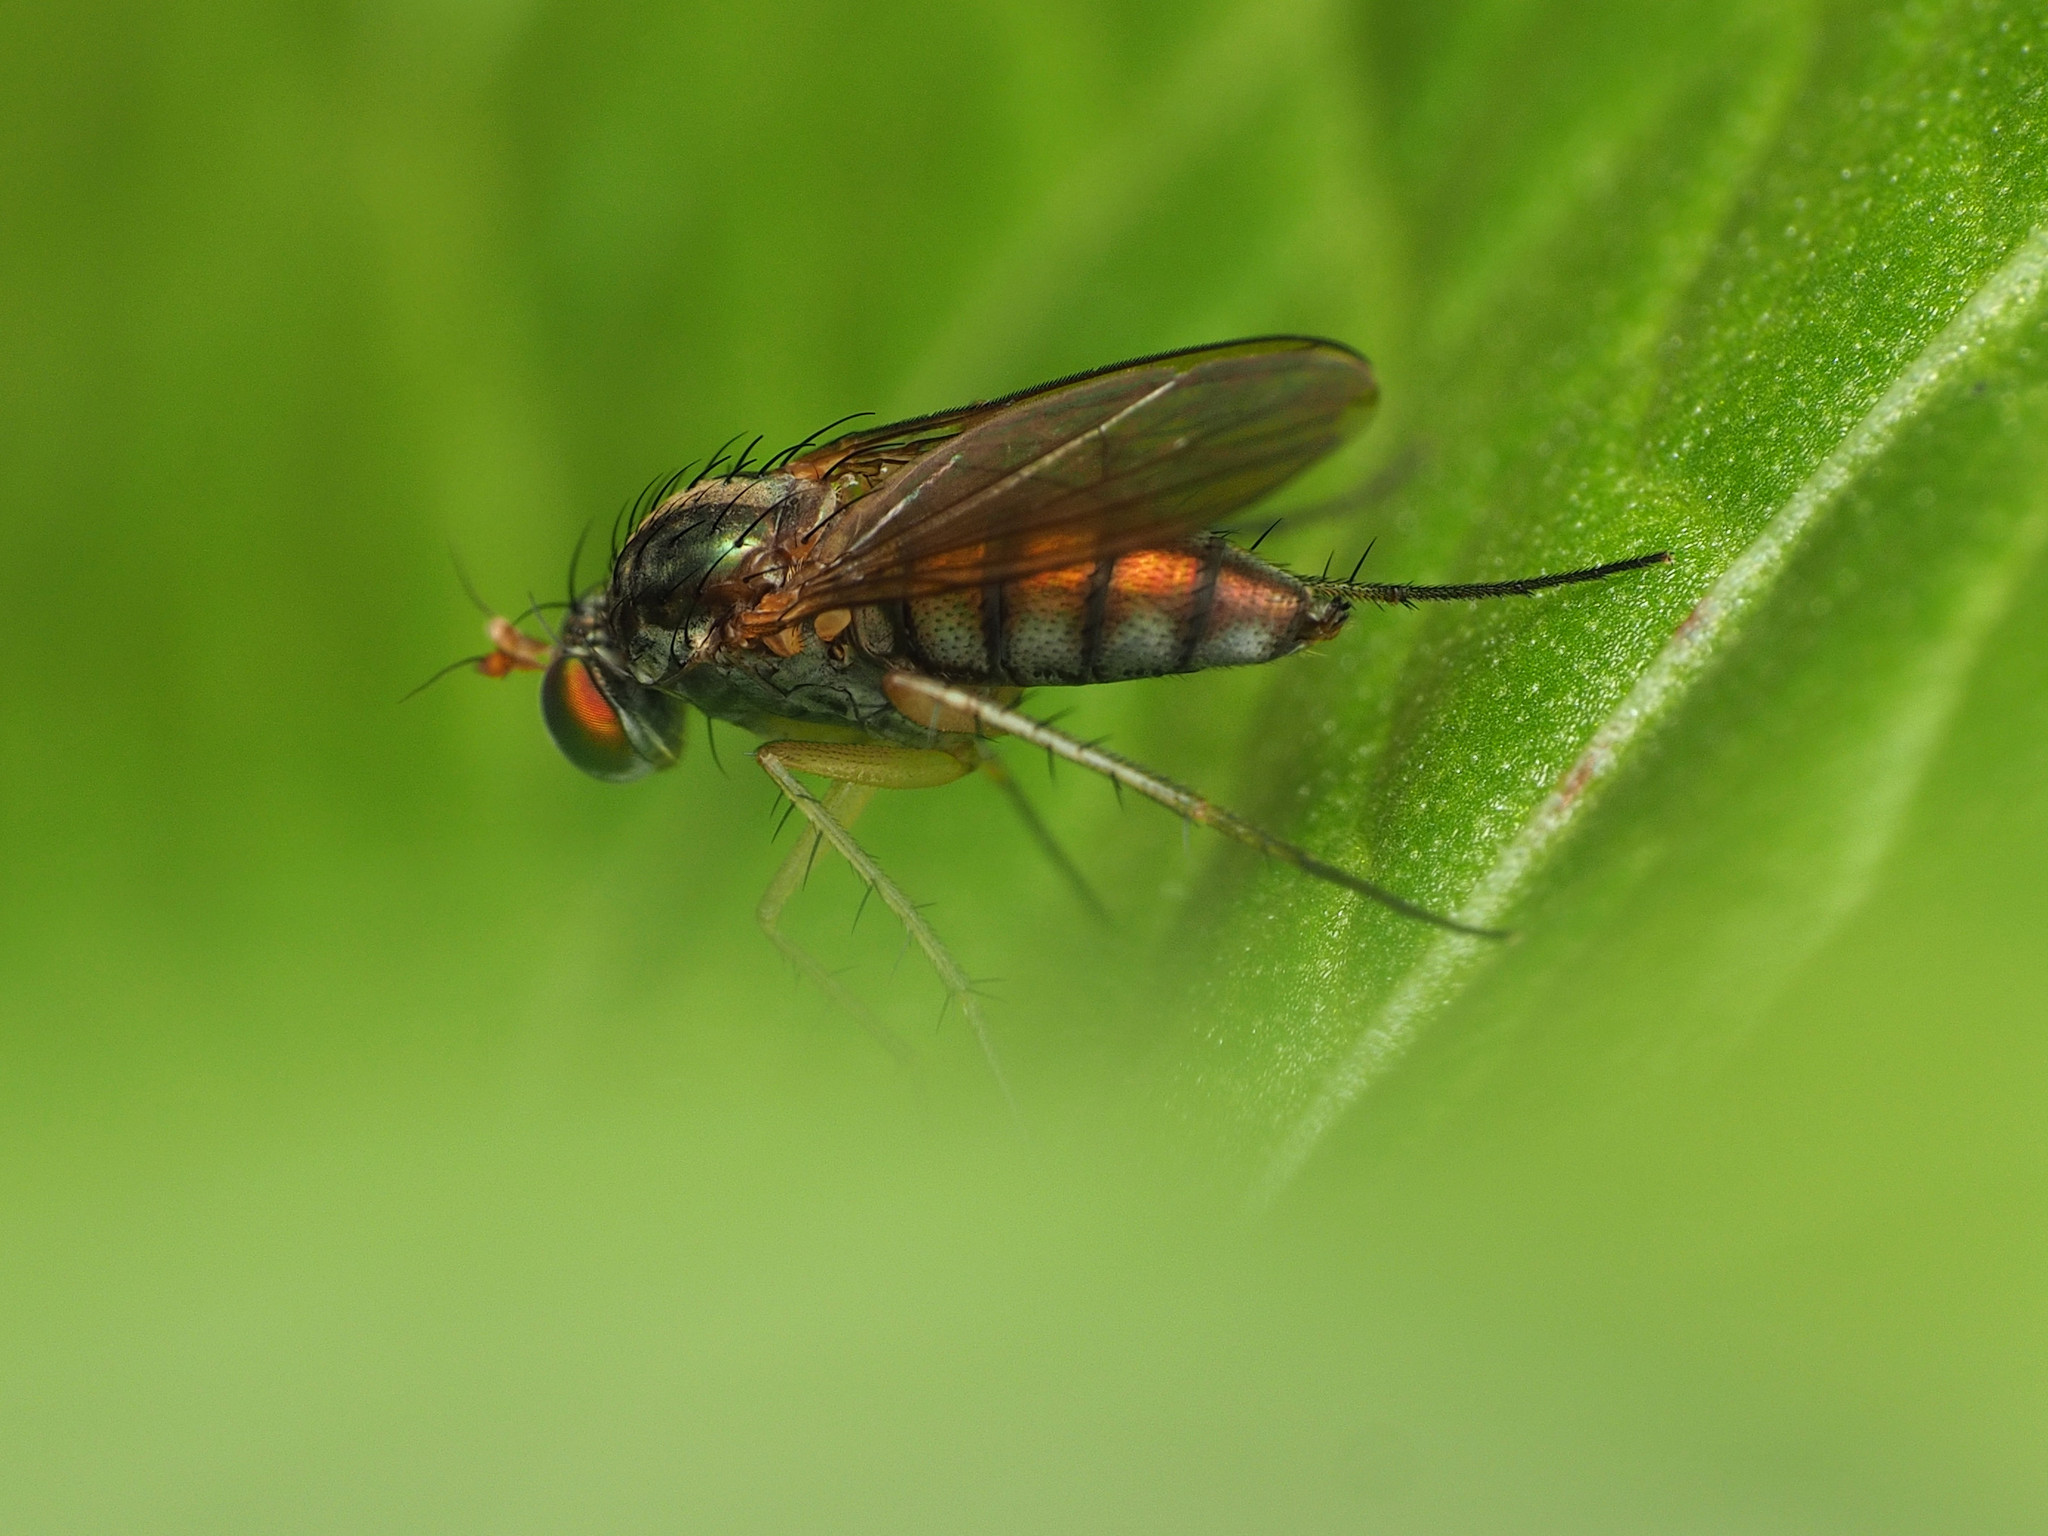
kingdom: Animalia
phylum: Arthropoda
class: Insecta
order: Diptera
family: Dolichopodidae
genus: Dolichopus
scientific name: Dolichopus scapularis
